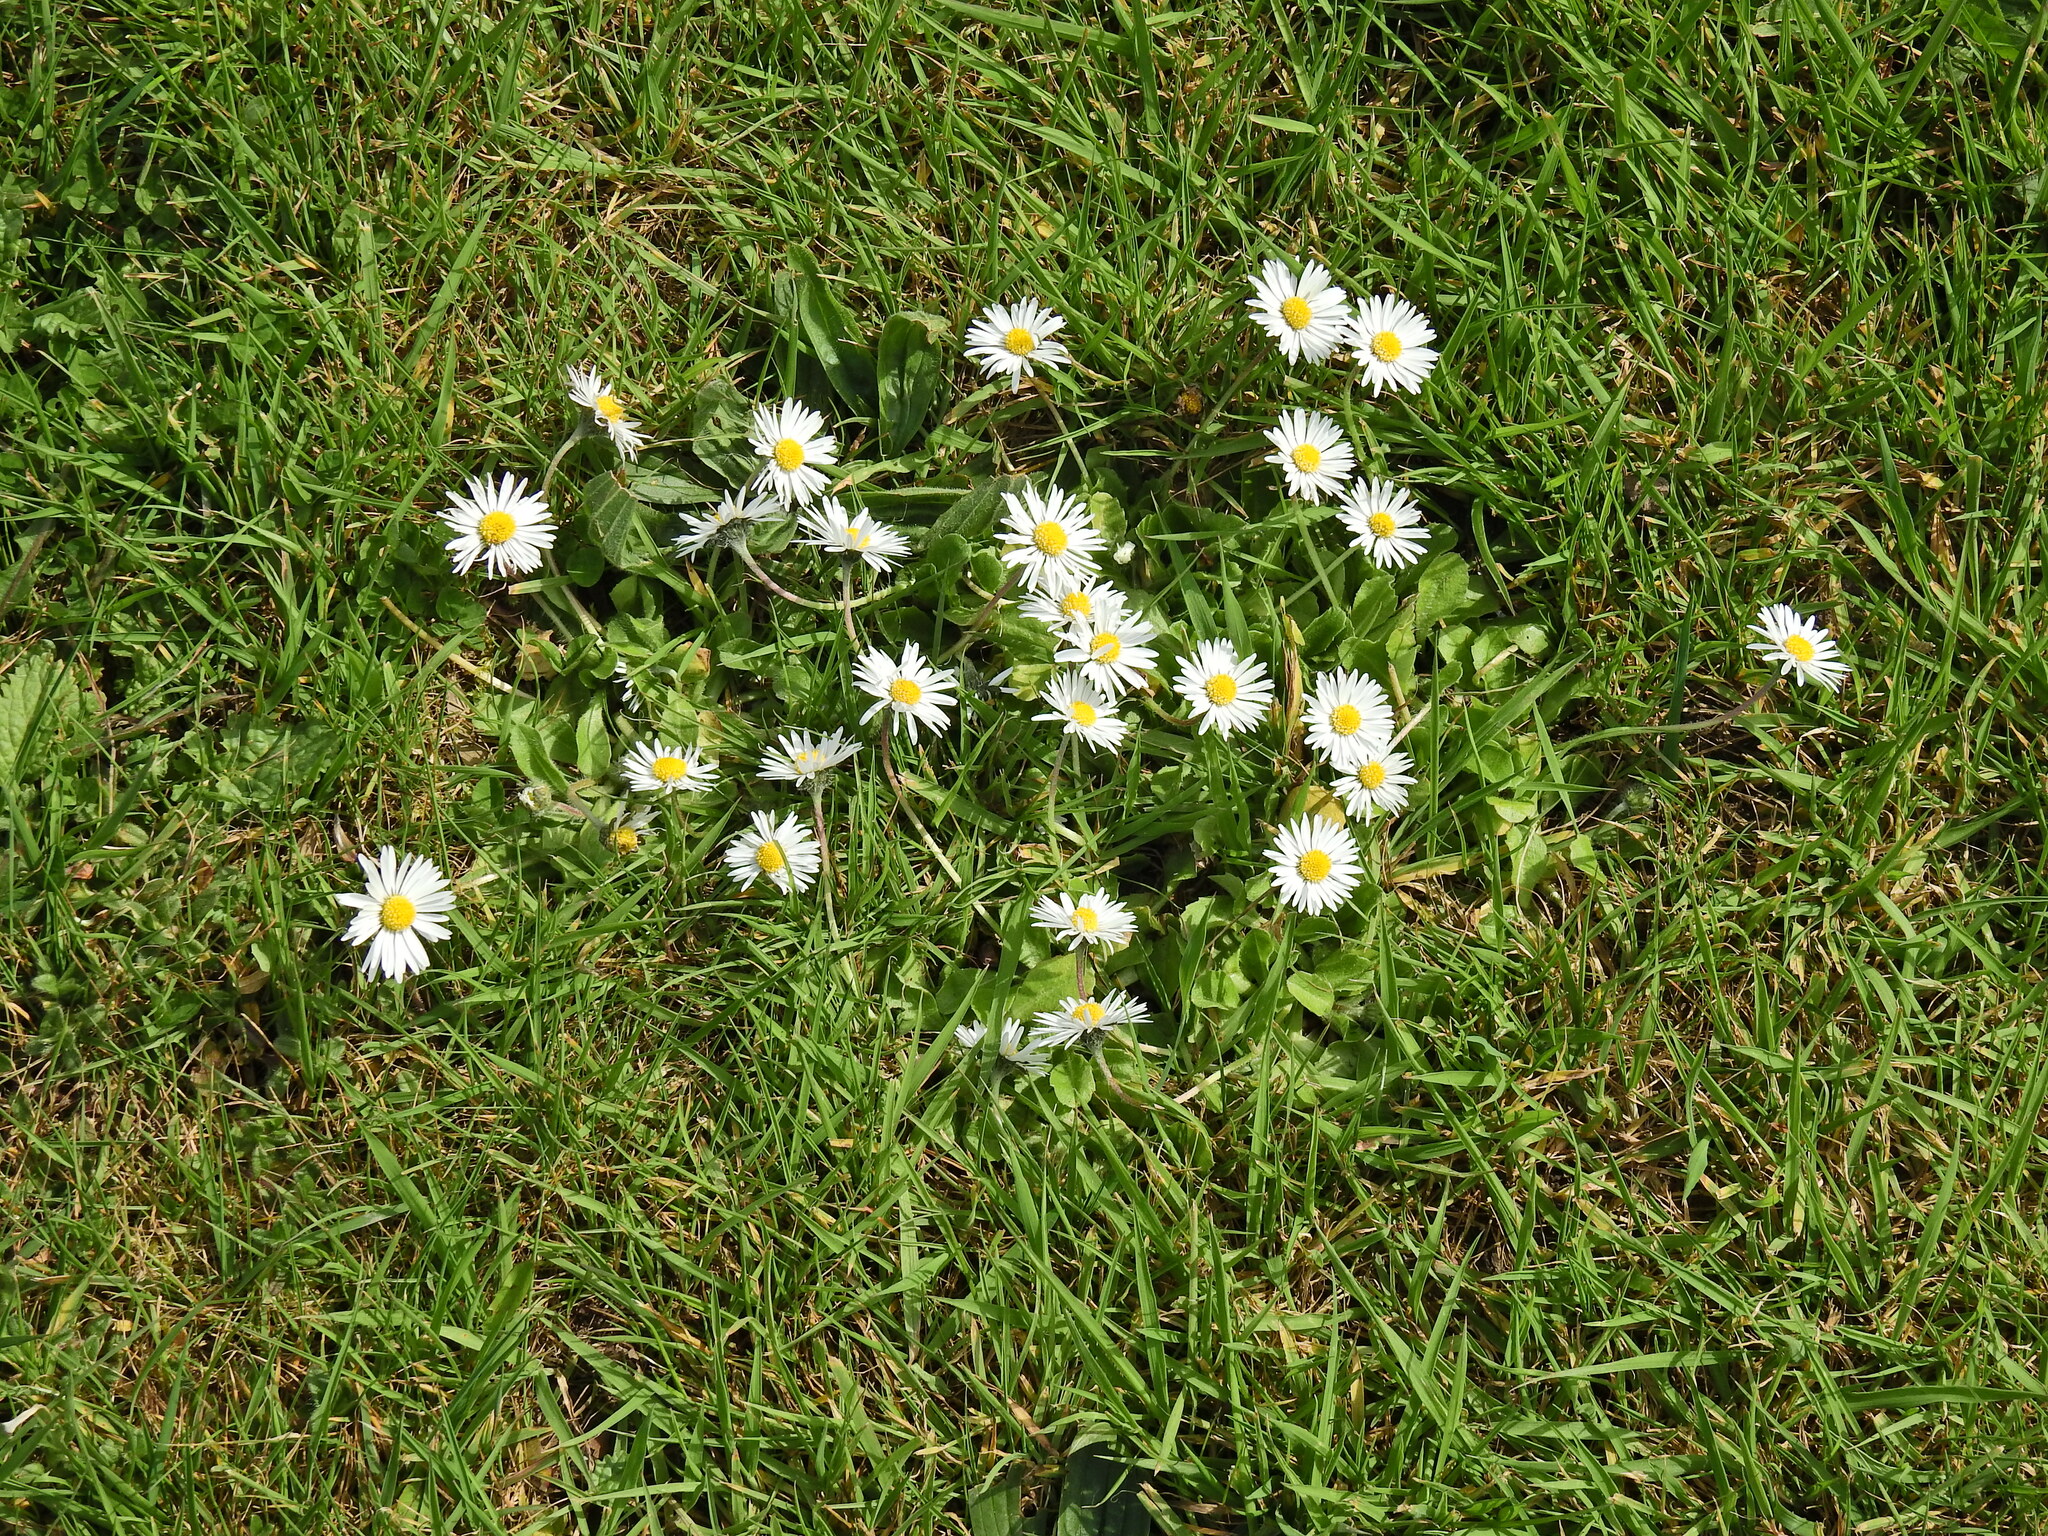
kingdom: Plantae
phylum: Tracheophyta
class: Magnoliopsida
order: Asterales
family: Asteraceae
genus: Bellis
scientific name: Bellis perennis
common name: Lawndaisy
